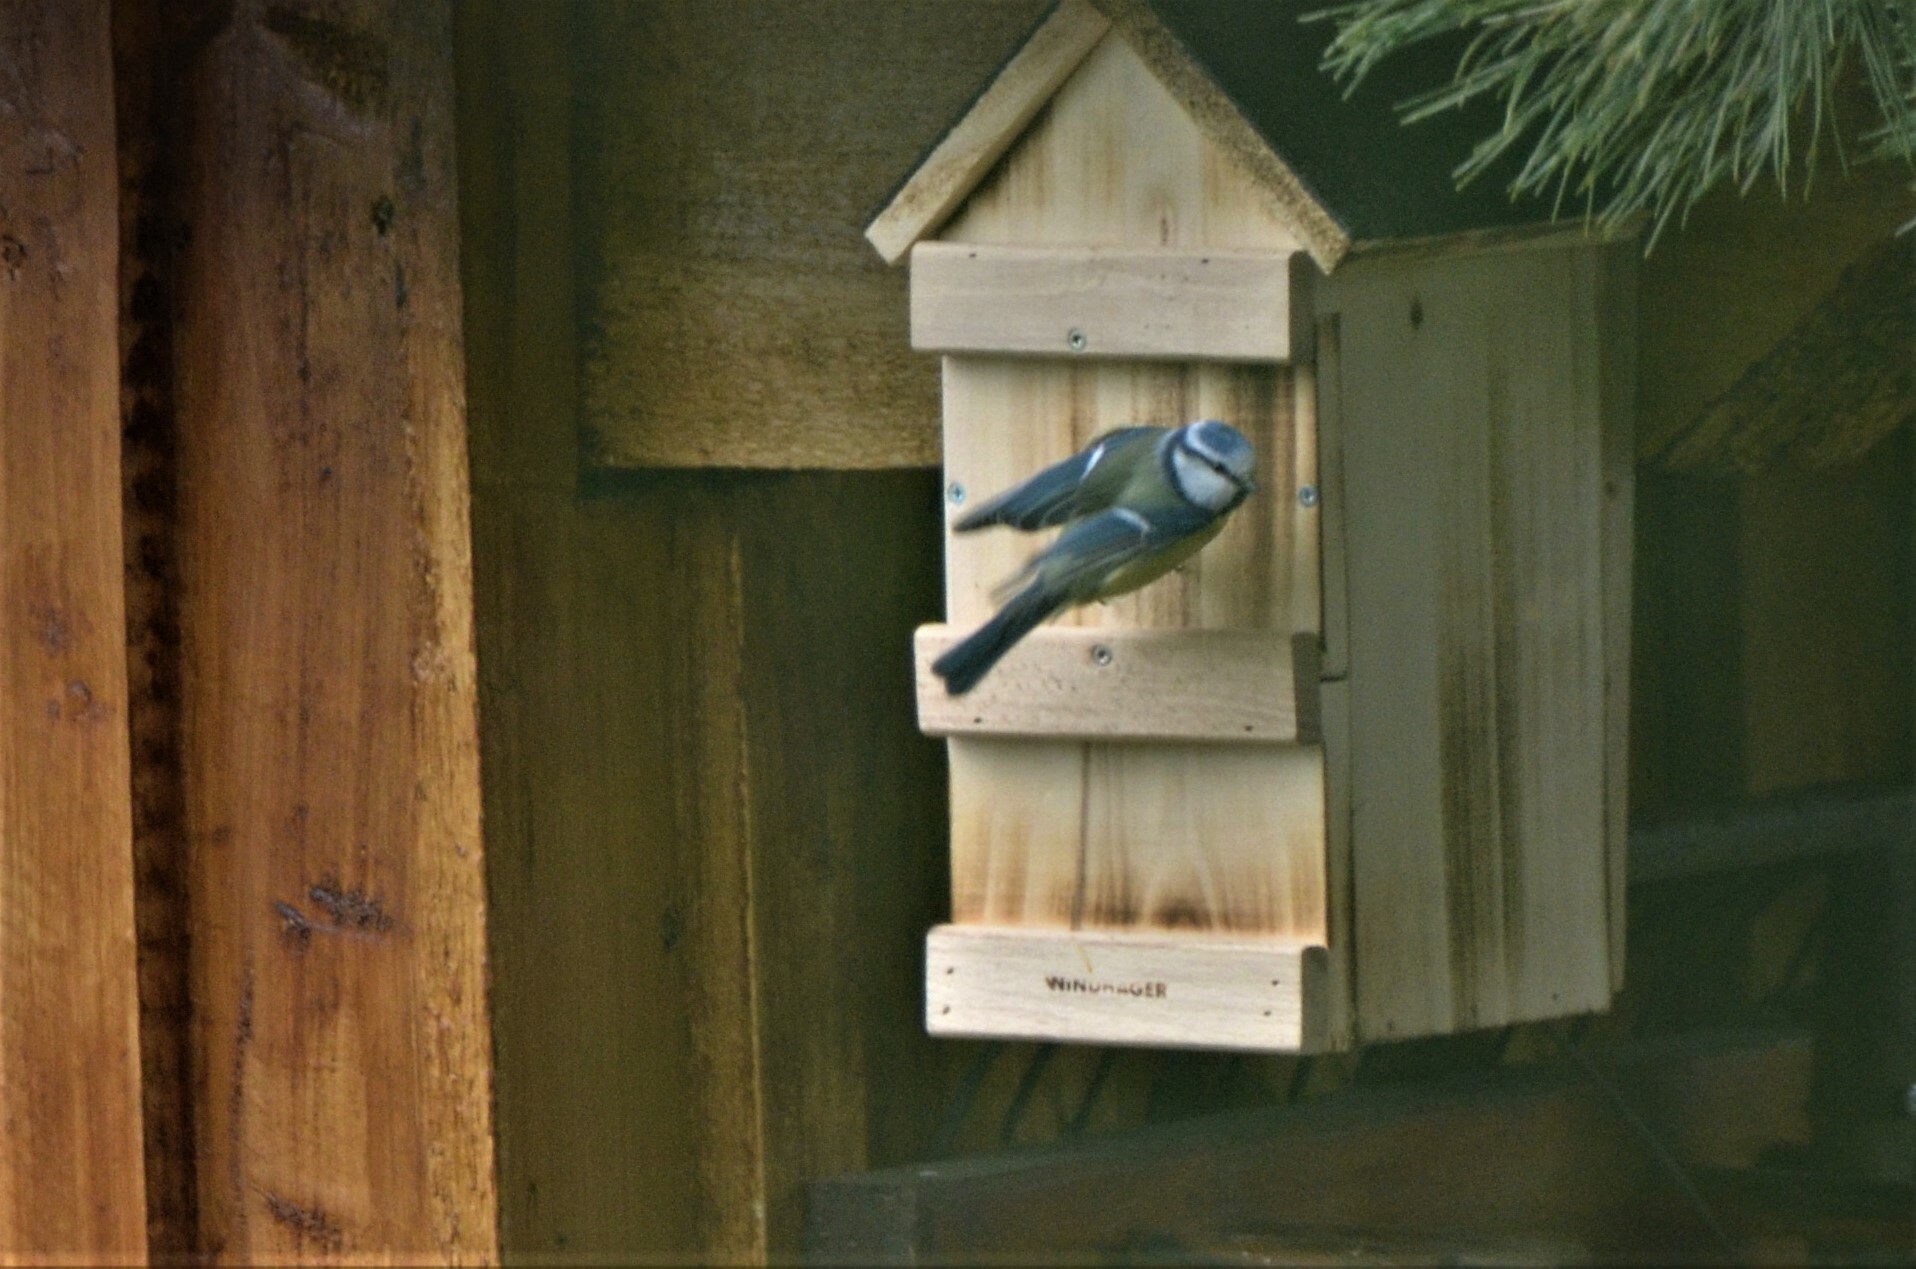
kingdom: Animalia
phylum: Chordata
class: Aves
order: Passeriformes
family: Paridae
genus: Cyanistes
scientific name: Cyanistes caeruleus
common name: Eurasian blue tit
